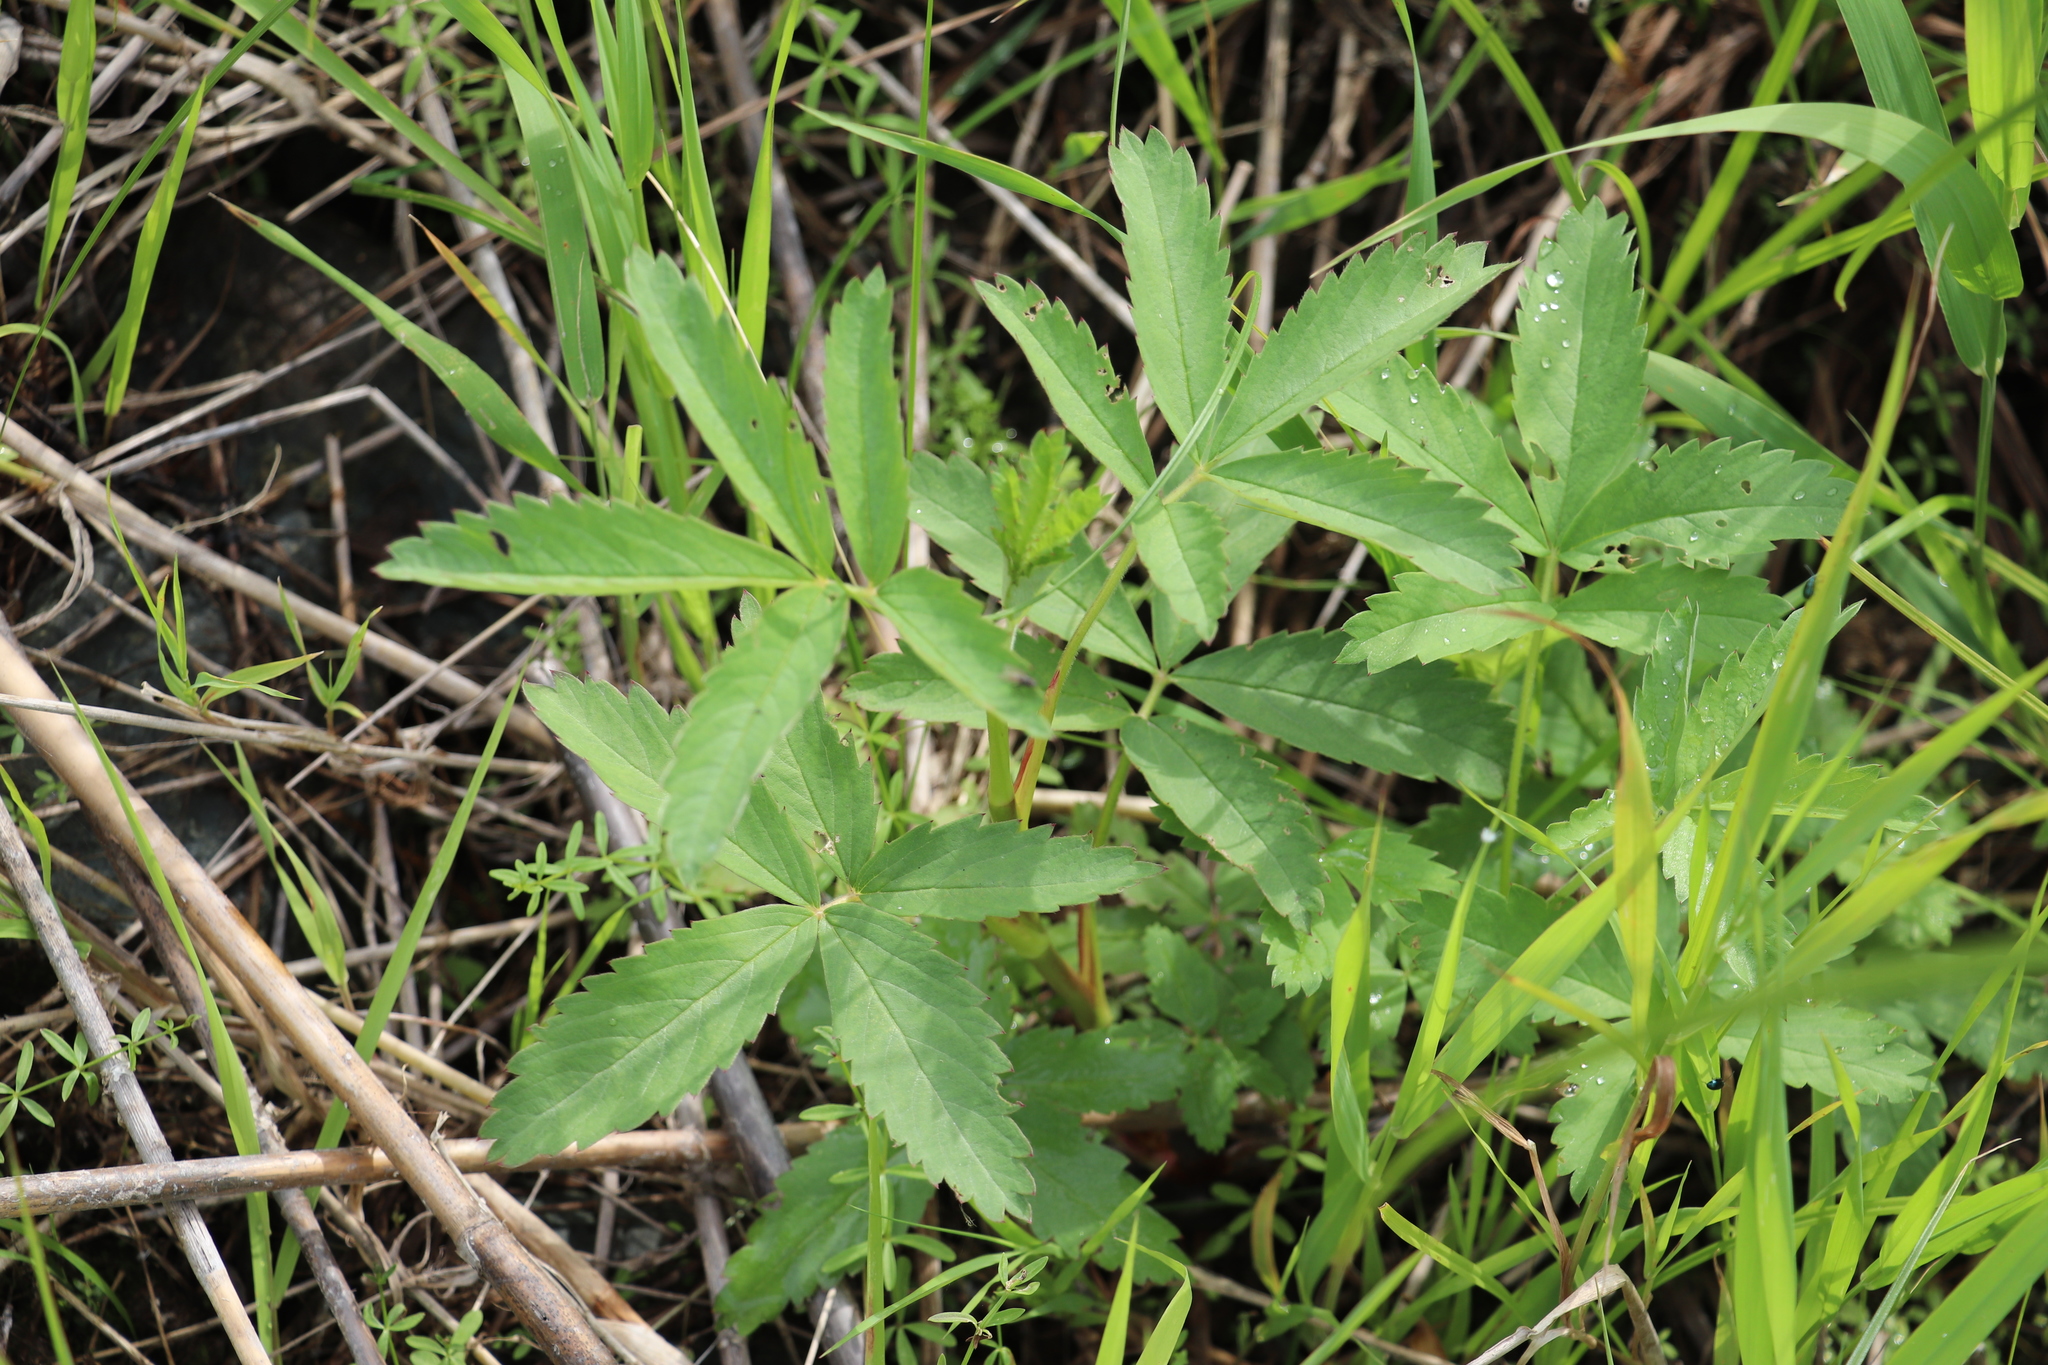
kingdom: Plantae
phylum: Tracheophyta
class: Magnoliopsida
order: Rosales
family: Rosaceae
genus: Comarum
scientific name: Comarum palustre
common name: Marsh cinquefoil
